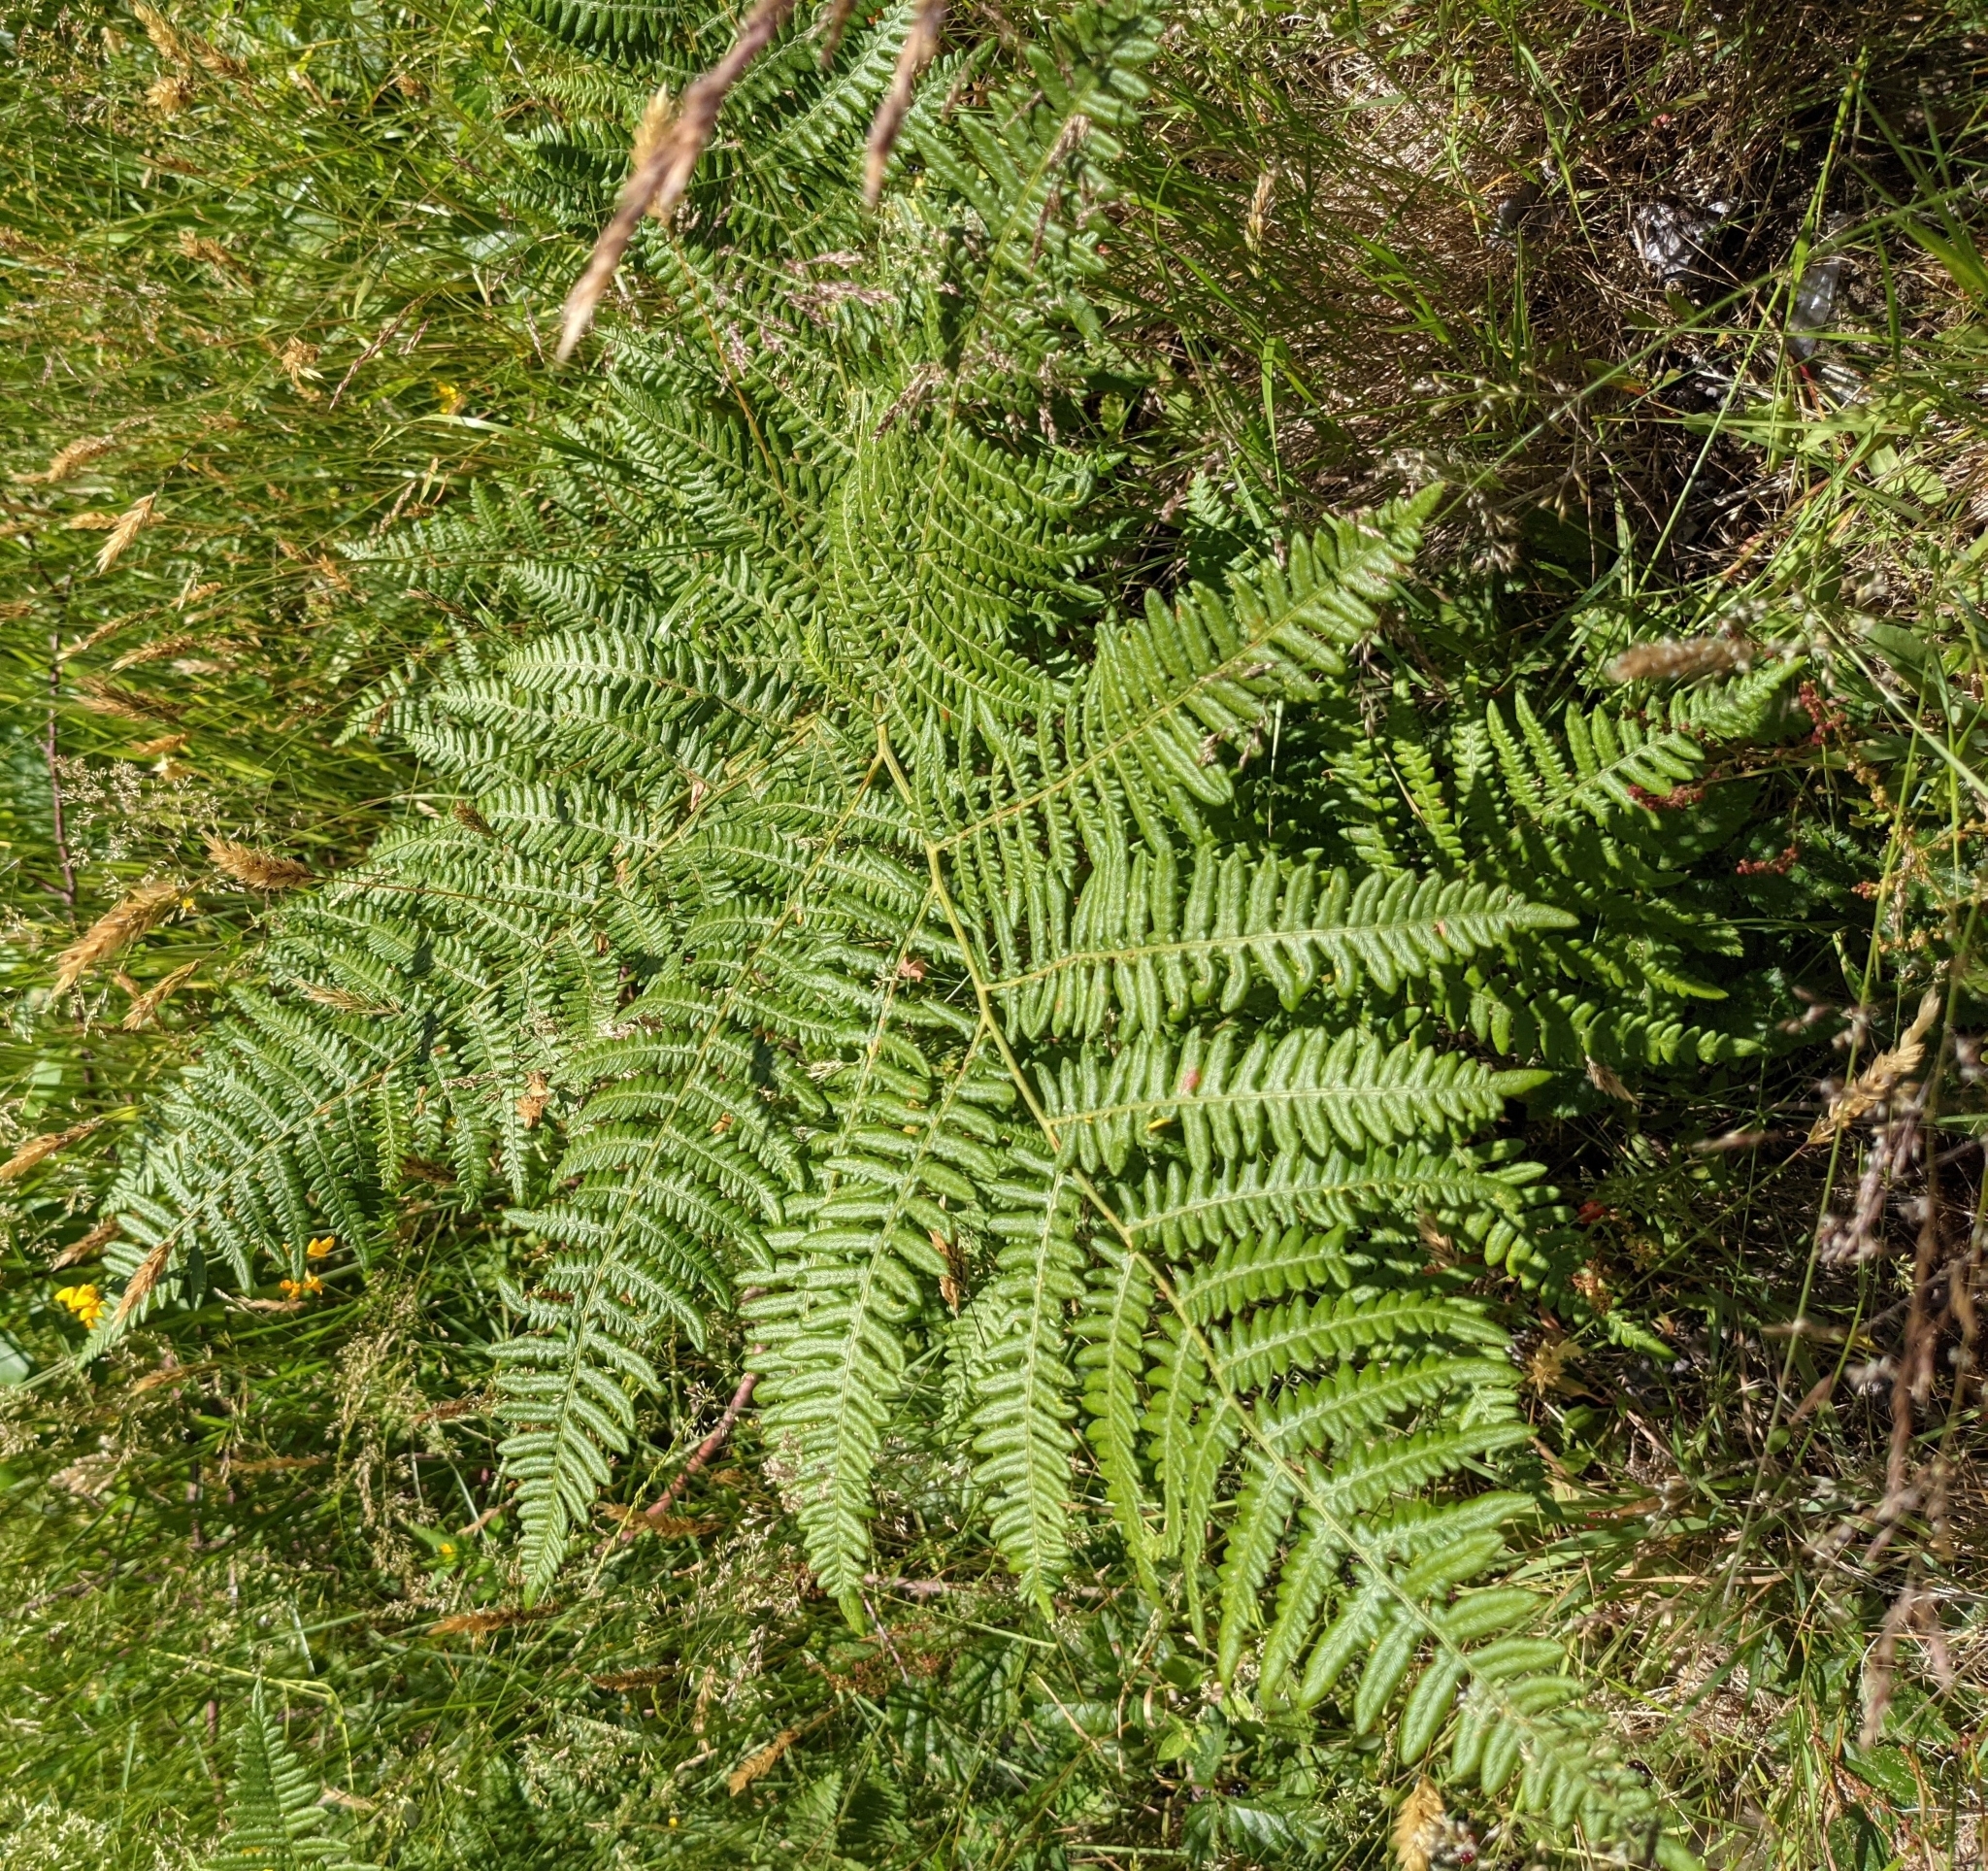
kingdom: Plantae
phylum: Tracheophyta
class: Polypodiopsida
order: Polypodiales
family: Dennstaedtiaceae
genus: Pteridium
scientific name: Pteridium aquilinum
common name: Bracken
